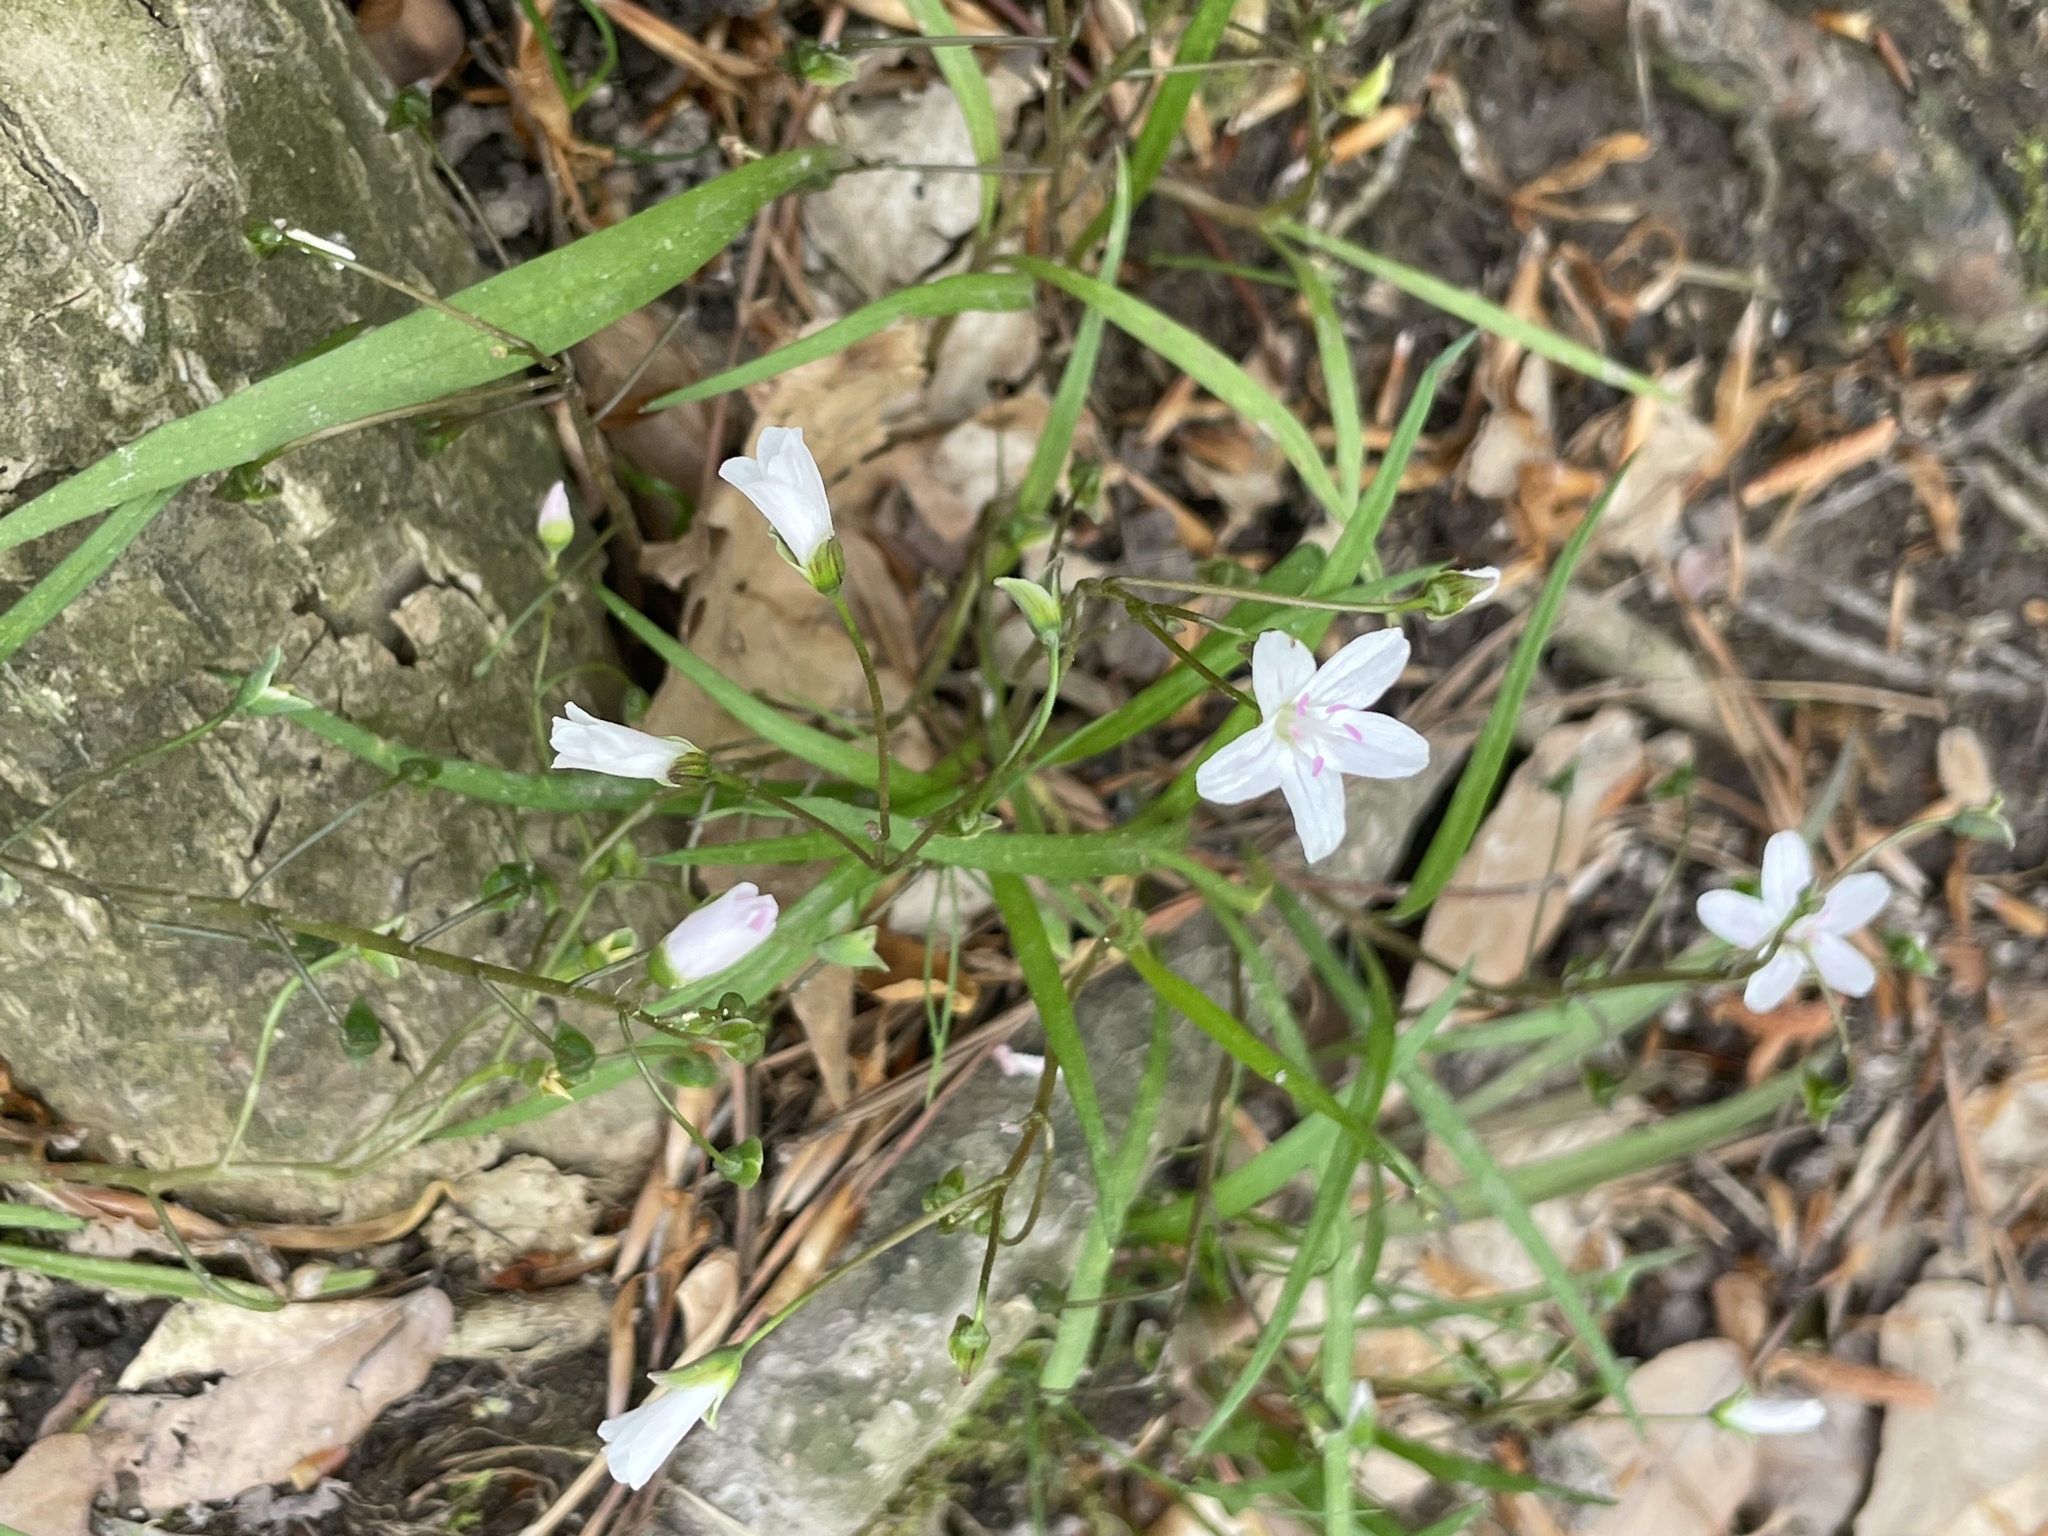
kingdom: Plantae
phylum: Tracheophyta
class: Magnoliopsida
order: Caryophyllales
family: Montiaceae
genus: Claytonia
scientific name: Claytonia virginica
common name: Virginia springbeauty
